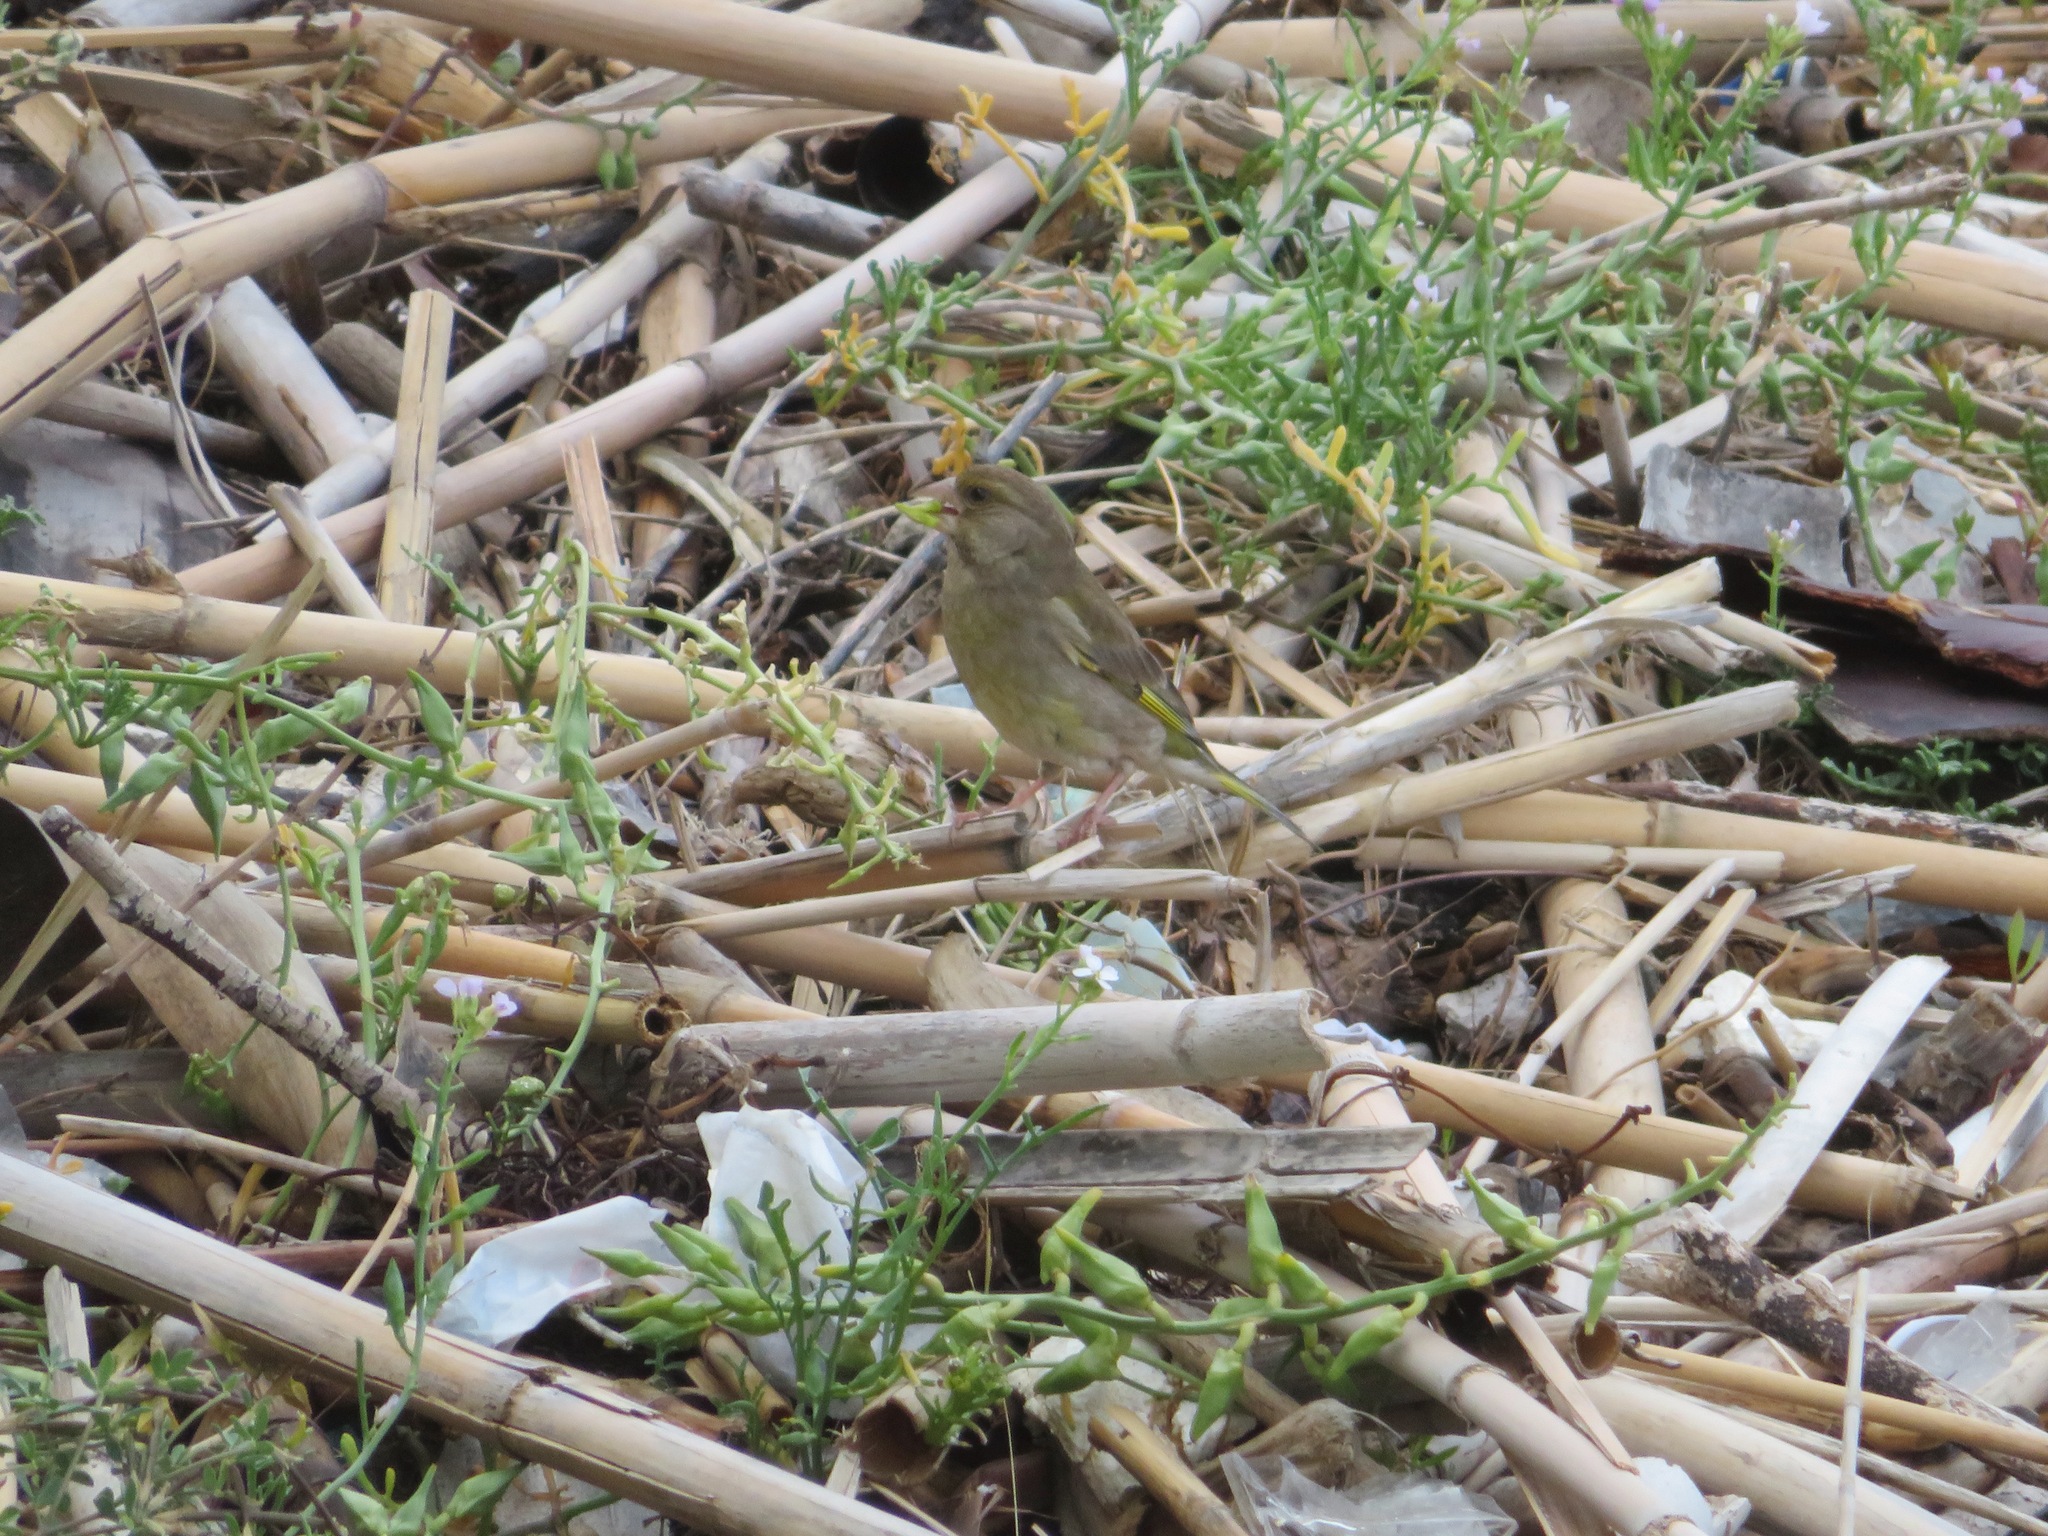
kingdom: Plantae
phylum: Tracheophyta
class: Liliopsida
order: Poales
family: Poaceae
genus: Chloris
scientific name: Chloris chloris
